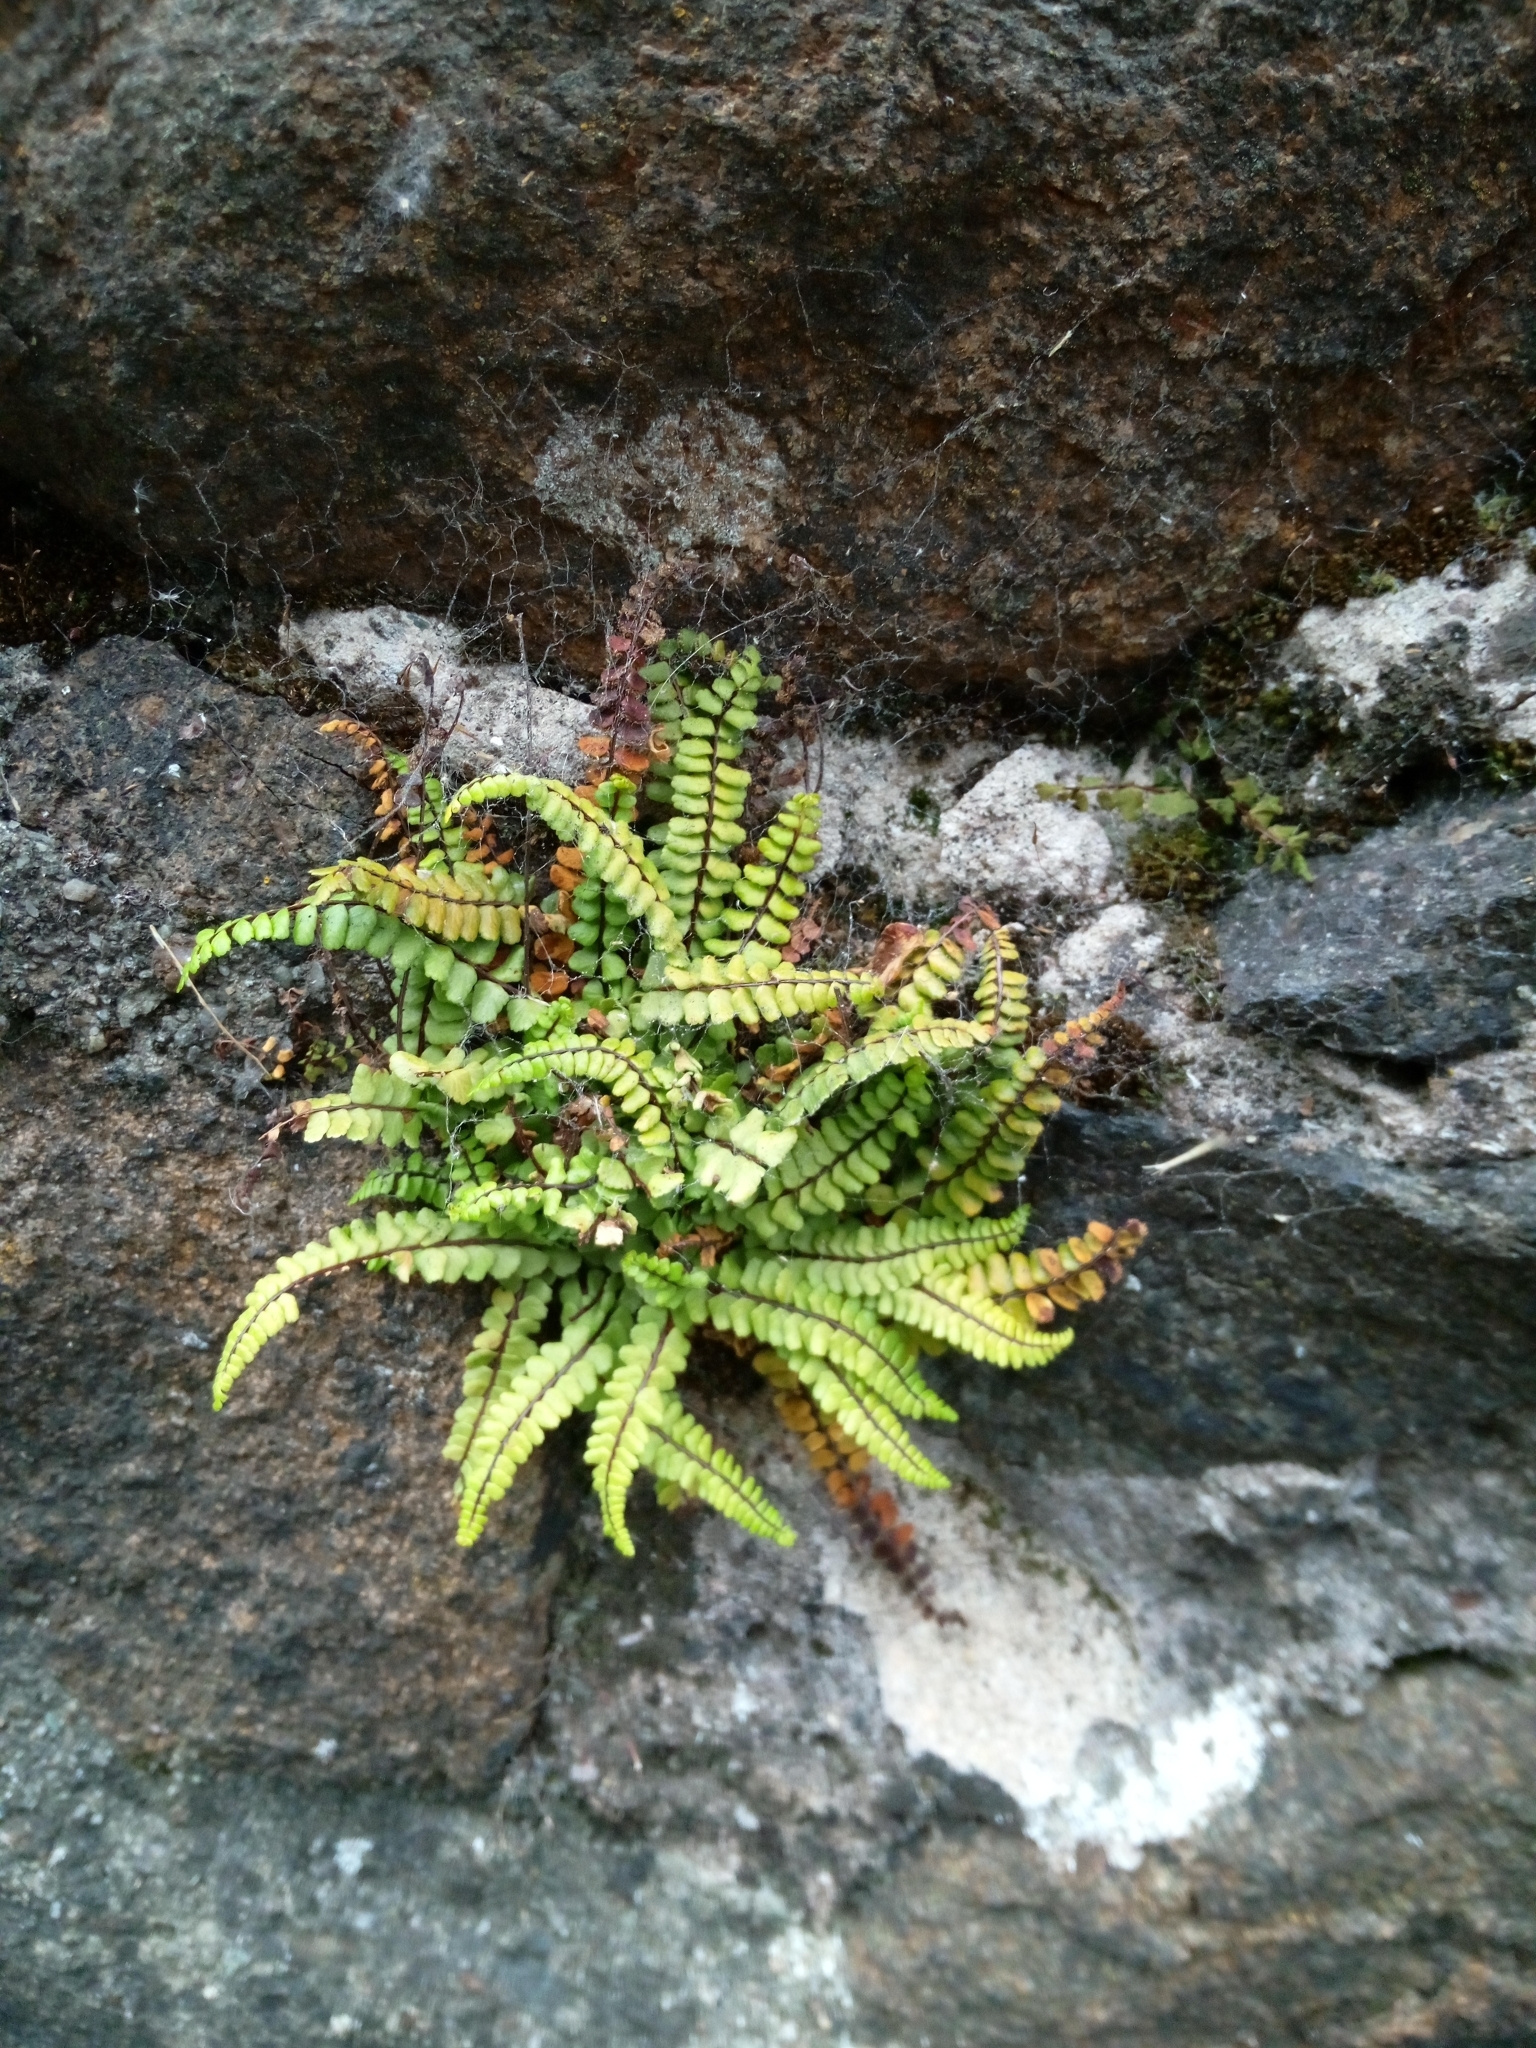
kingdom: Plantae
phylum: Tracheophyta
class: Polypodiopsida
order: Polypodiales
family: Aspleniaceae
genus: Asplenium
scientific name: Asplenium trichomanes
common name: Maidenhair spleenwort
